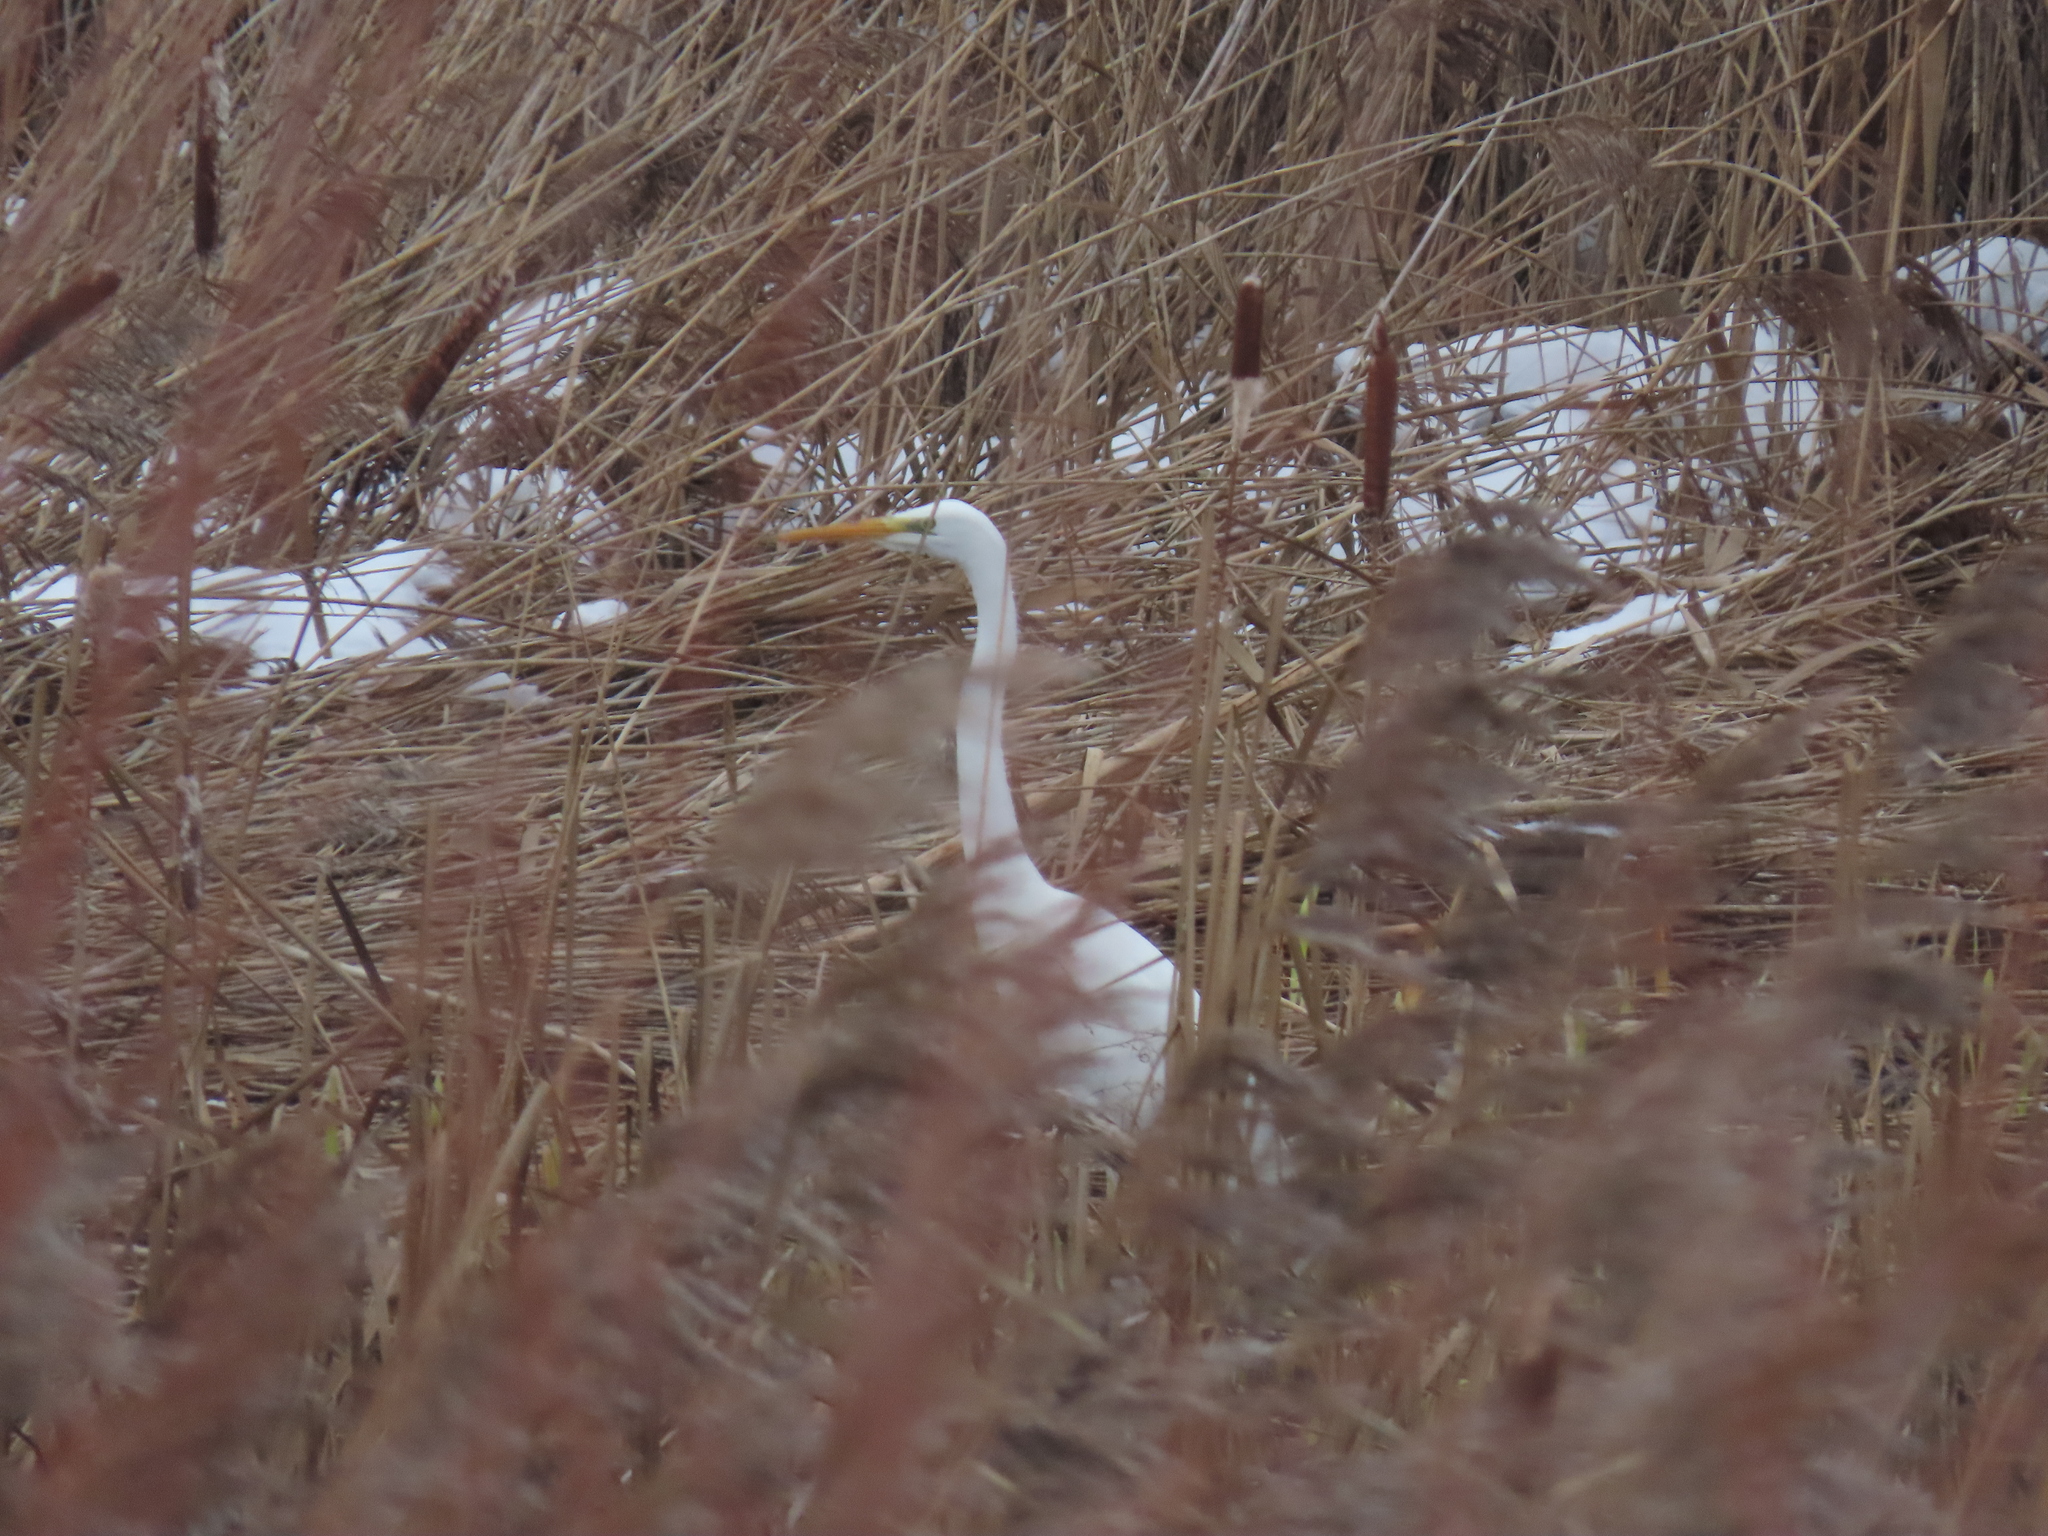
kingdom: Animalia
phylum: Chordata
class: Aves
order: Pelecaniformes
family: Ardeidae
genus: Ardea
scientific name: Ardea alba
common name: Great egret
